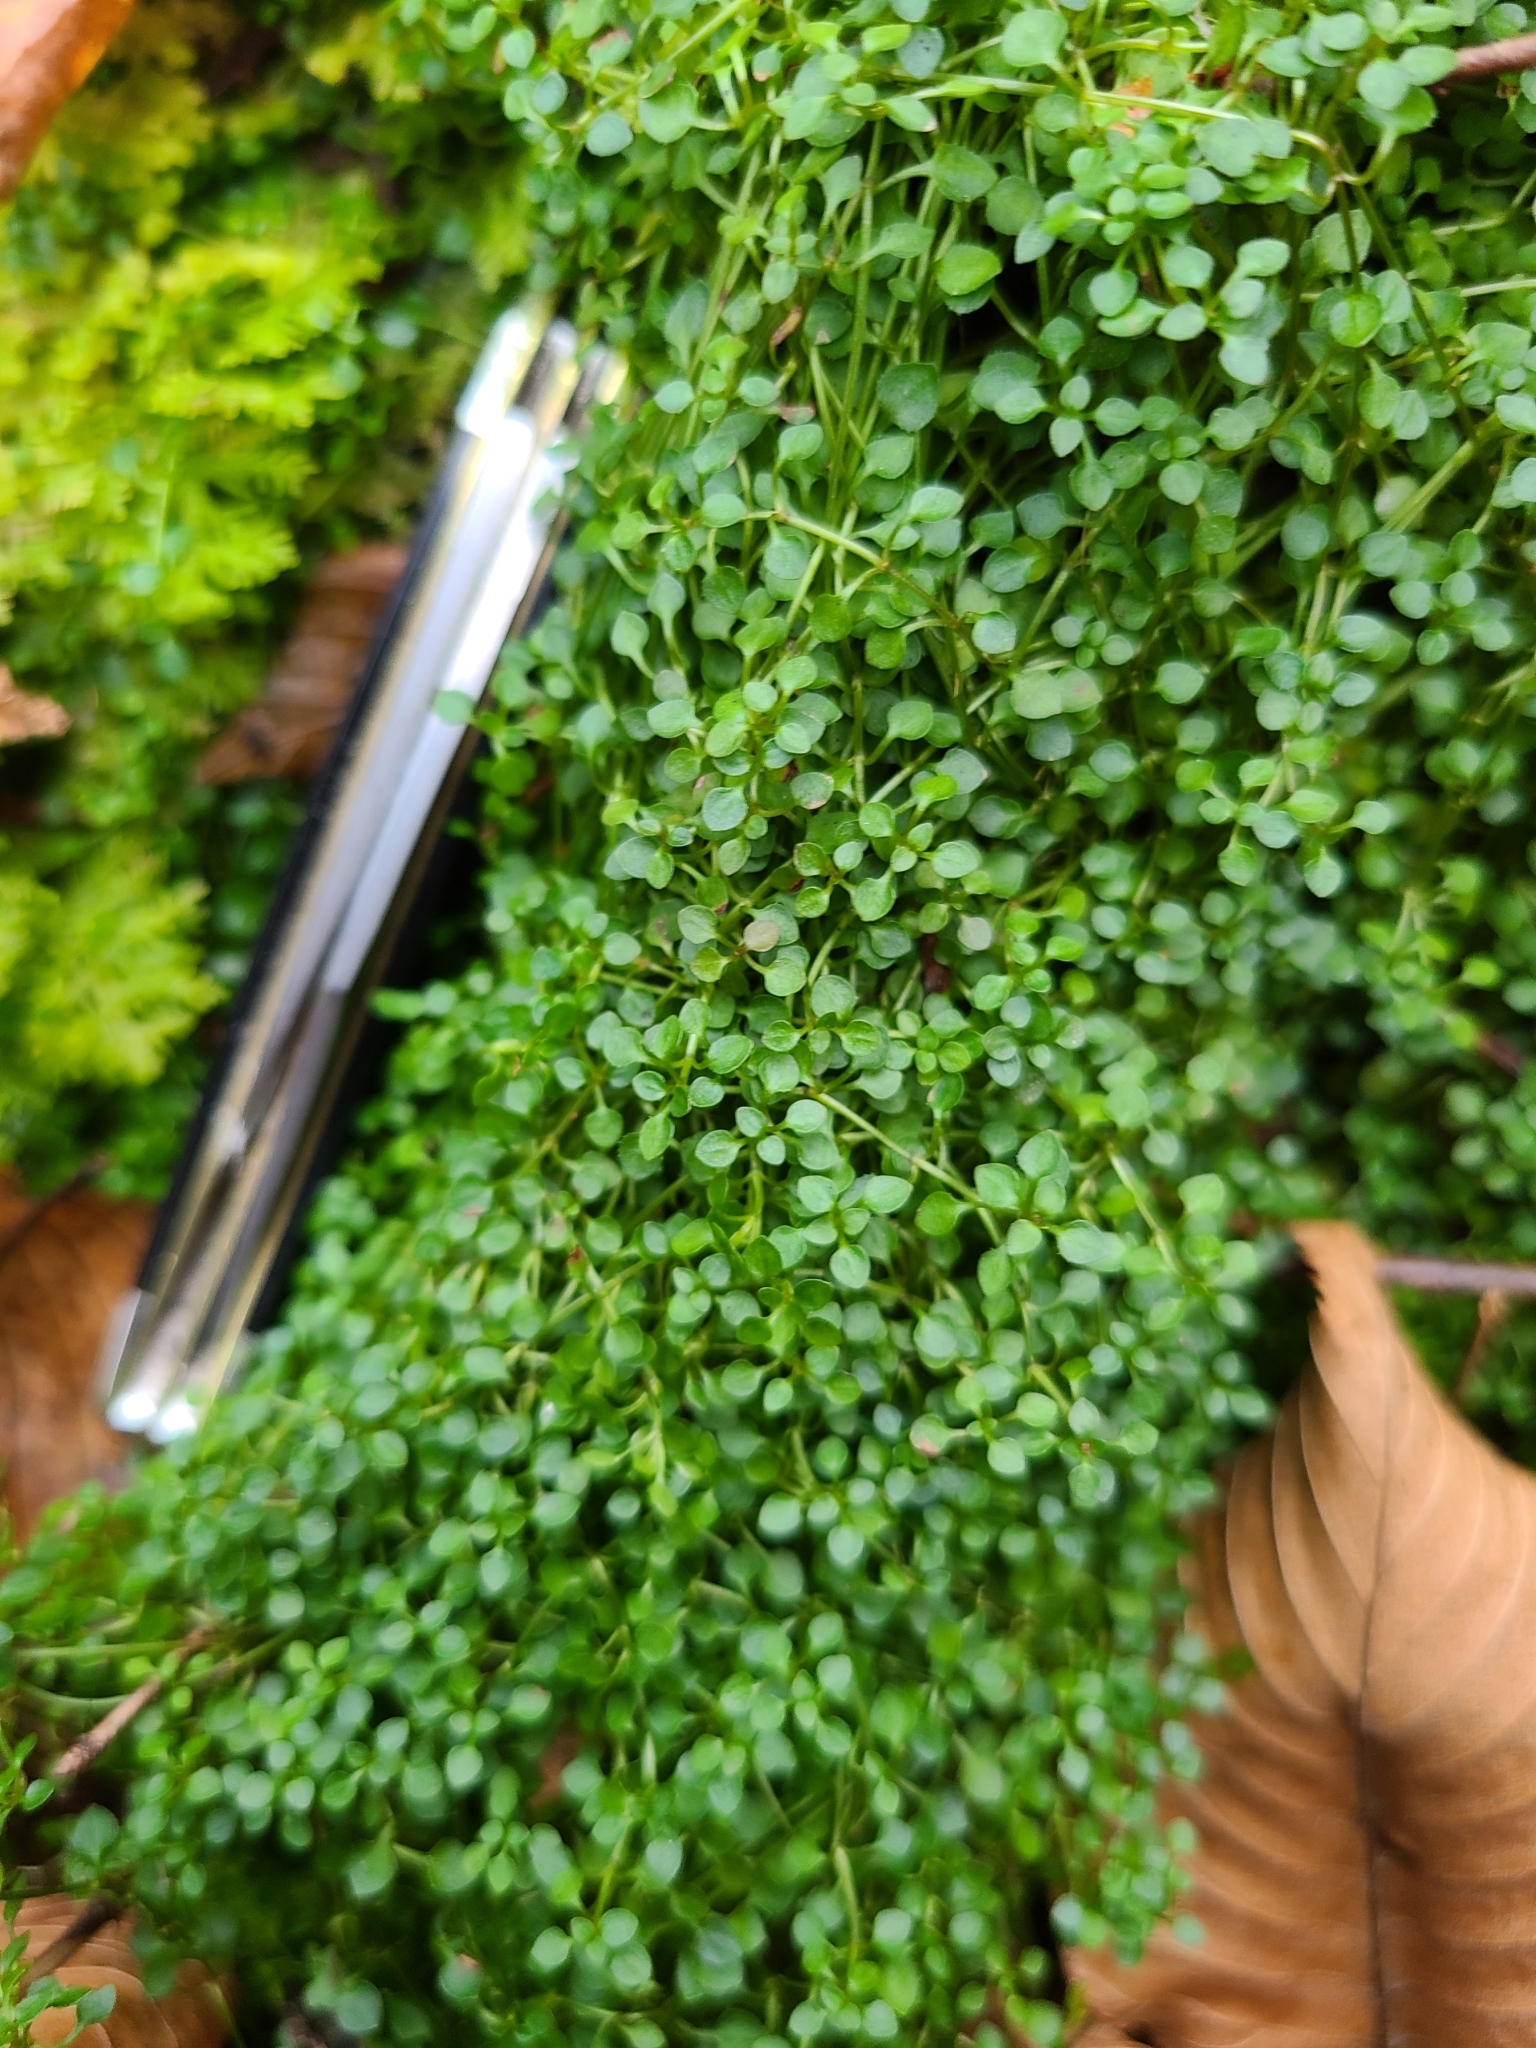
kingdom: Plantae
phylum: Tracheophyta
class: Magnoliopsida
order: Gentianales
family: Rubiaceae
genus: Houstonia
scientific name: Houstonia serpyllifolia
